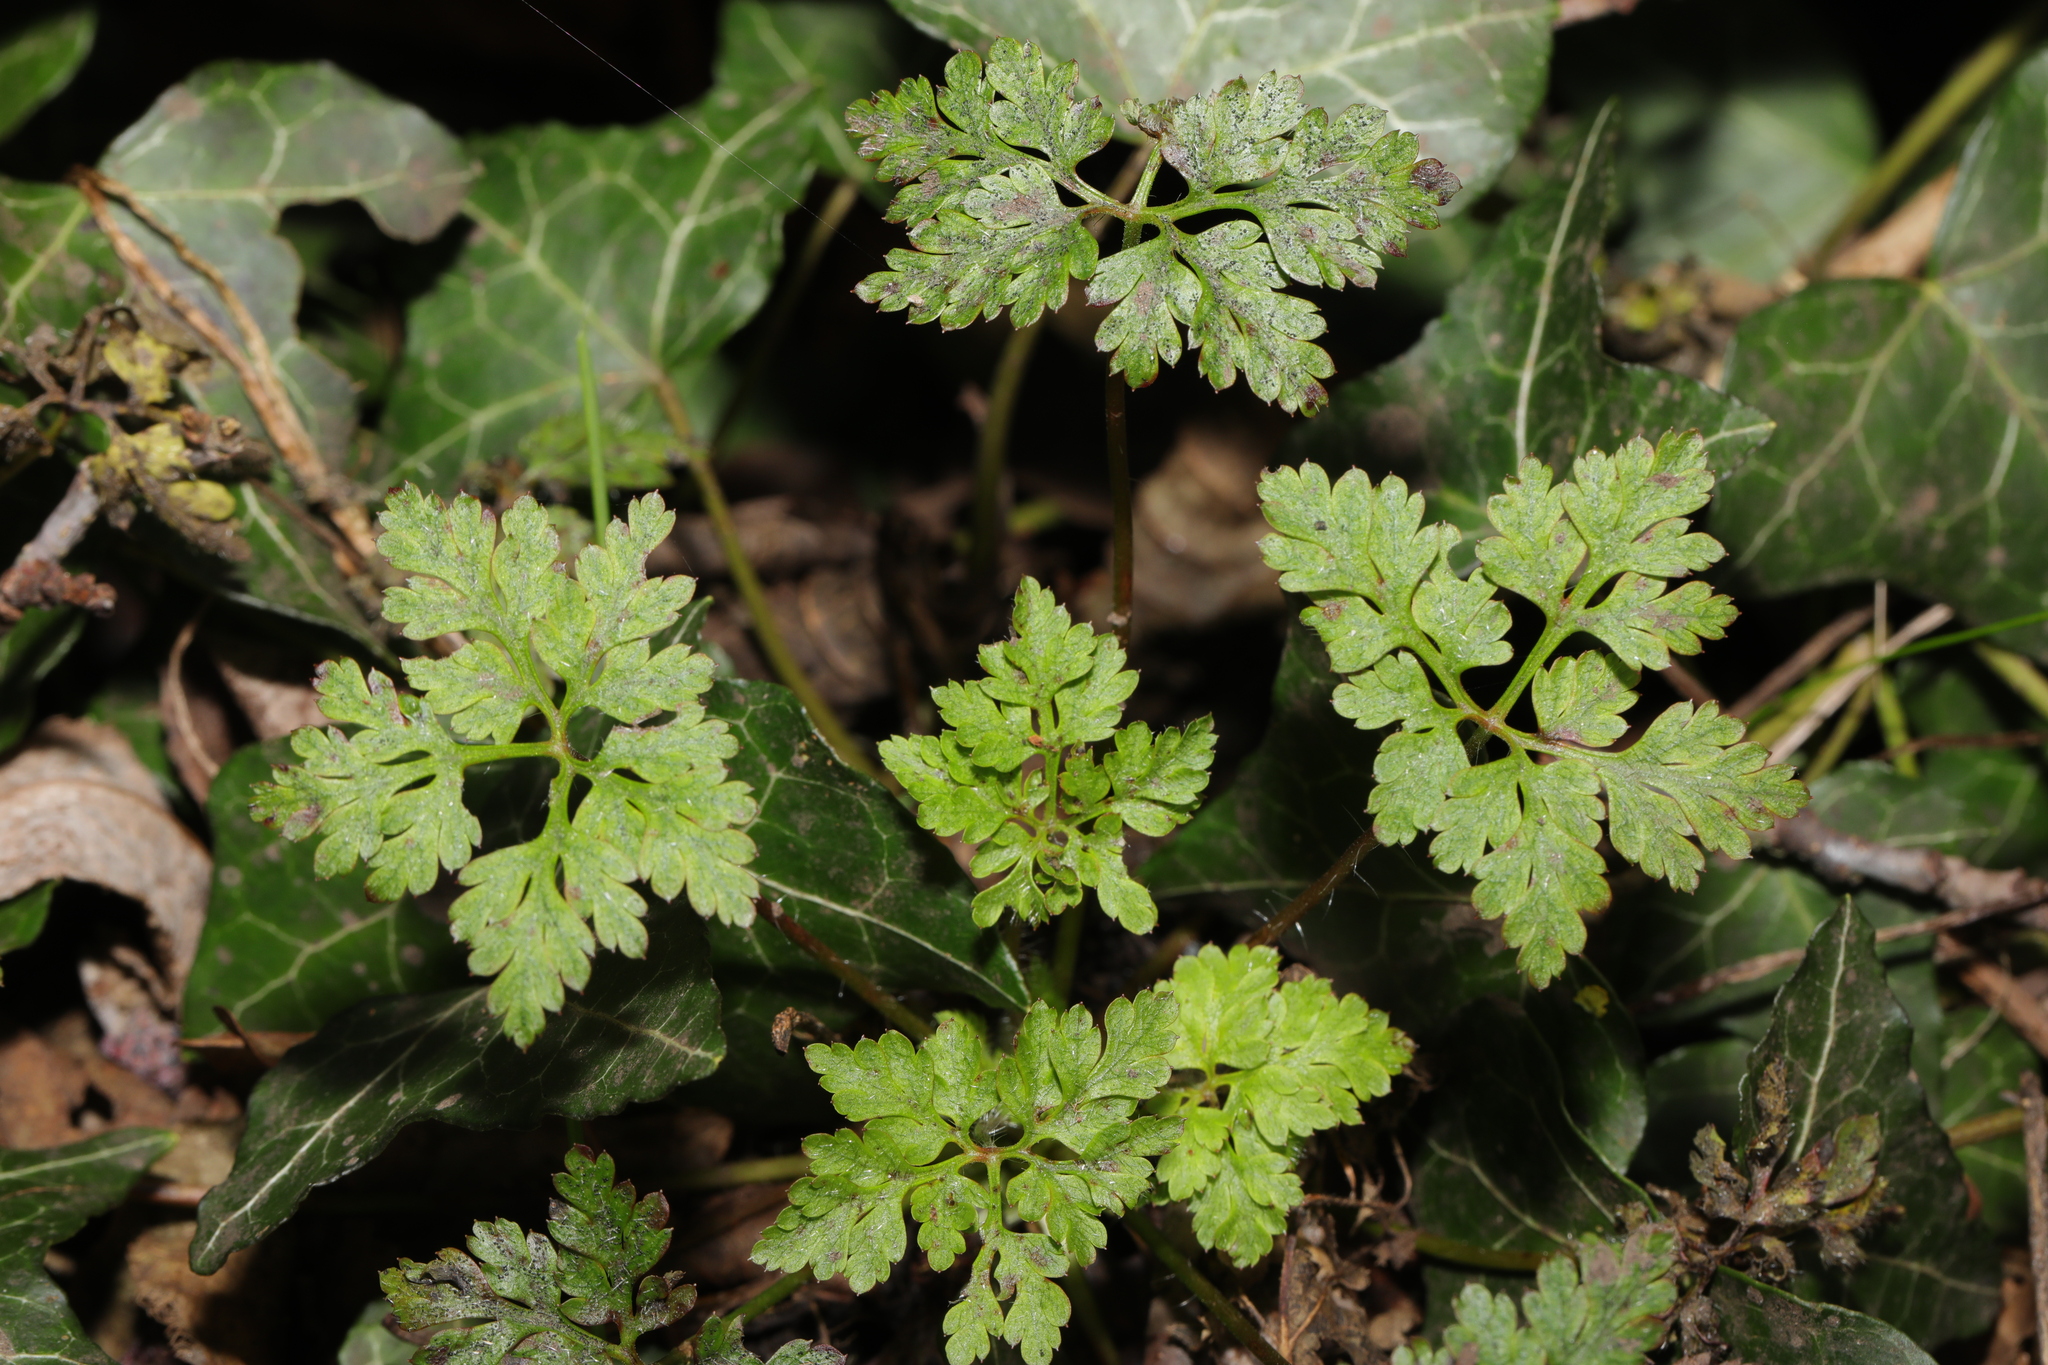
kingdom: Plantae
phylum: Tracheophyta
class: Magnoliopsida
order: Geraniales
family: Geraniaceae
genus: Geranium
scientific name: Geranium robertianum
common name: Herb-robert
